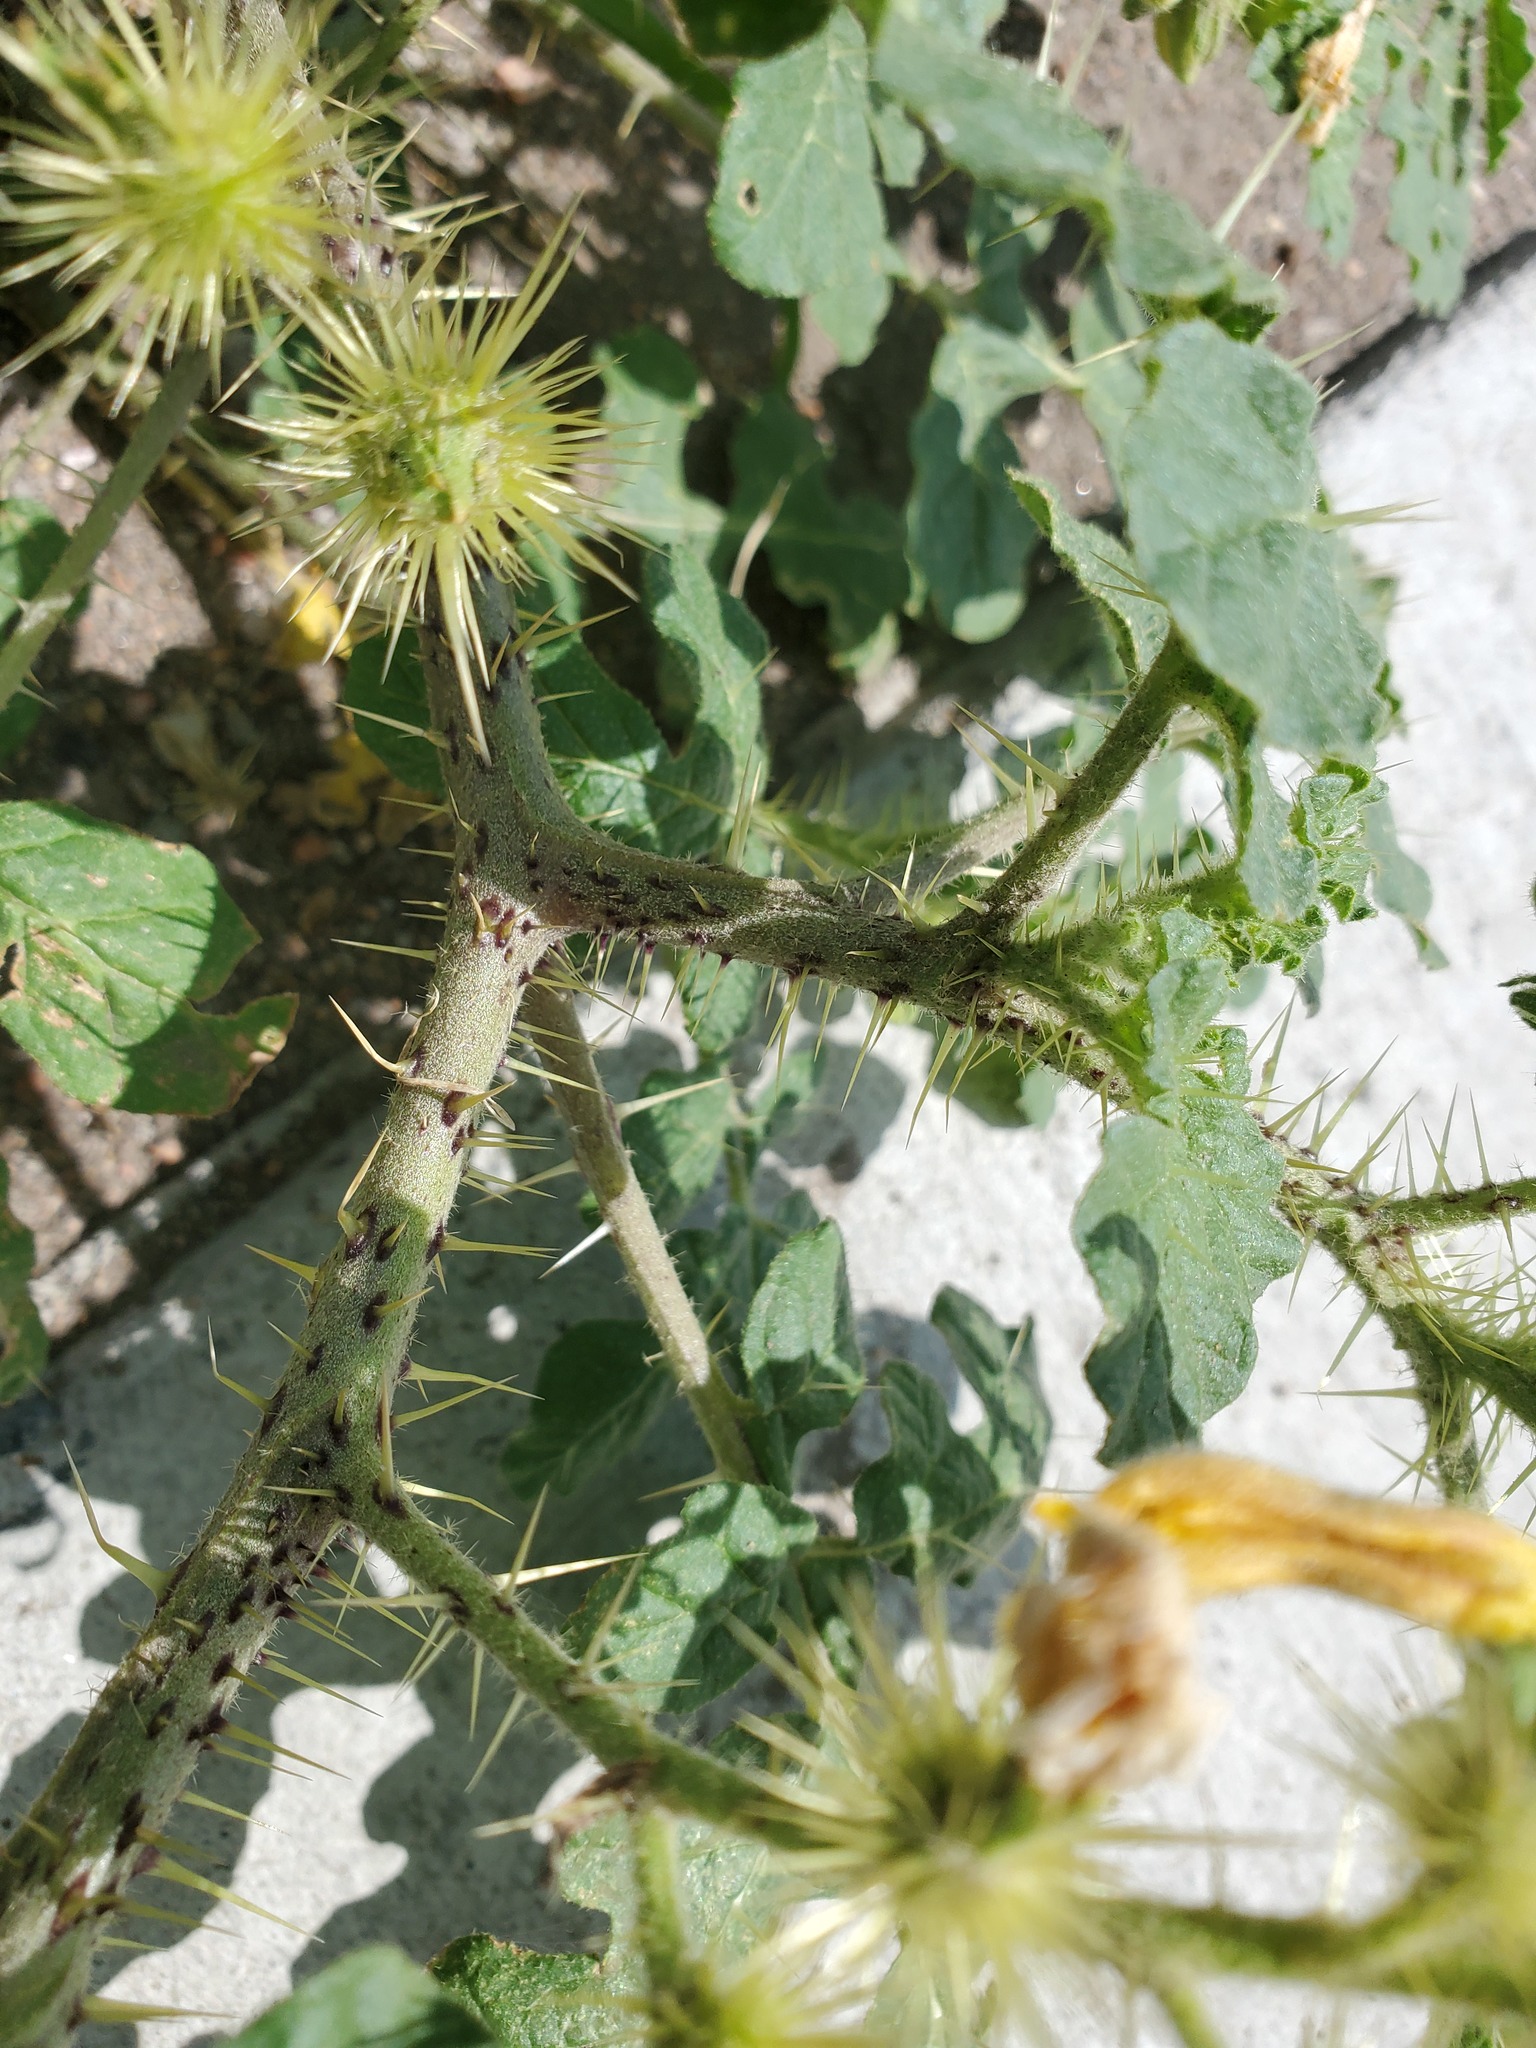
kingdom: Plantae
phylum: Tracheophyta
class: Magnoliopsida
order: Solanales
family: Solanaceae
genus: Solanum
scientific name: Solanum angustifolium
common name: Buffalobur nightshade
